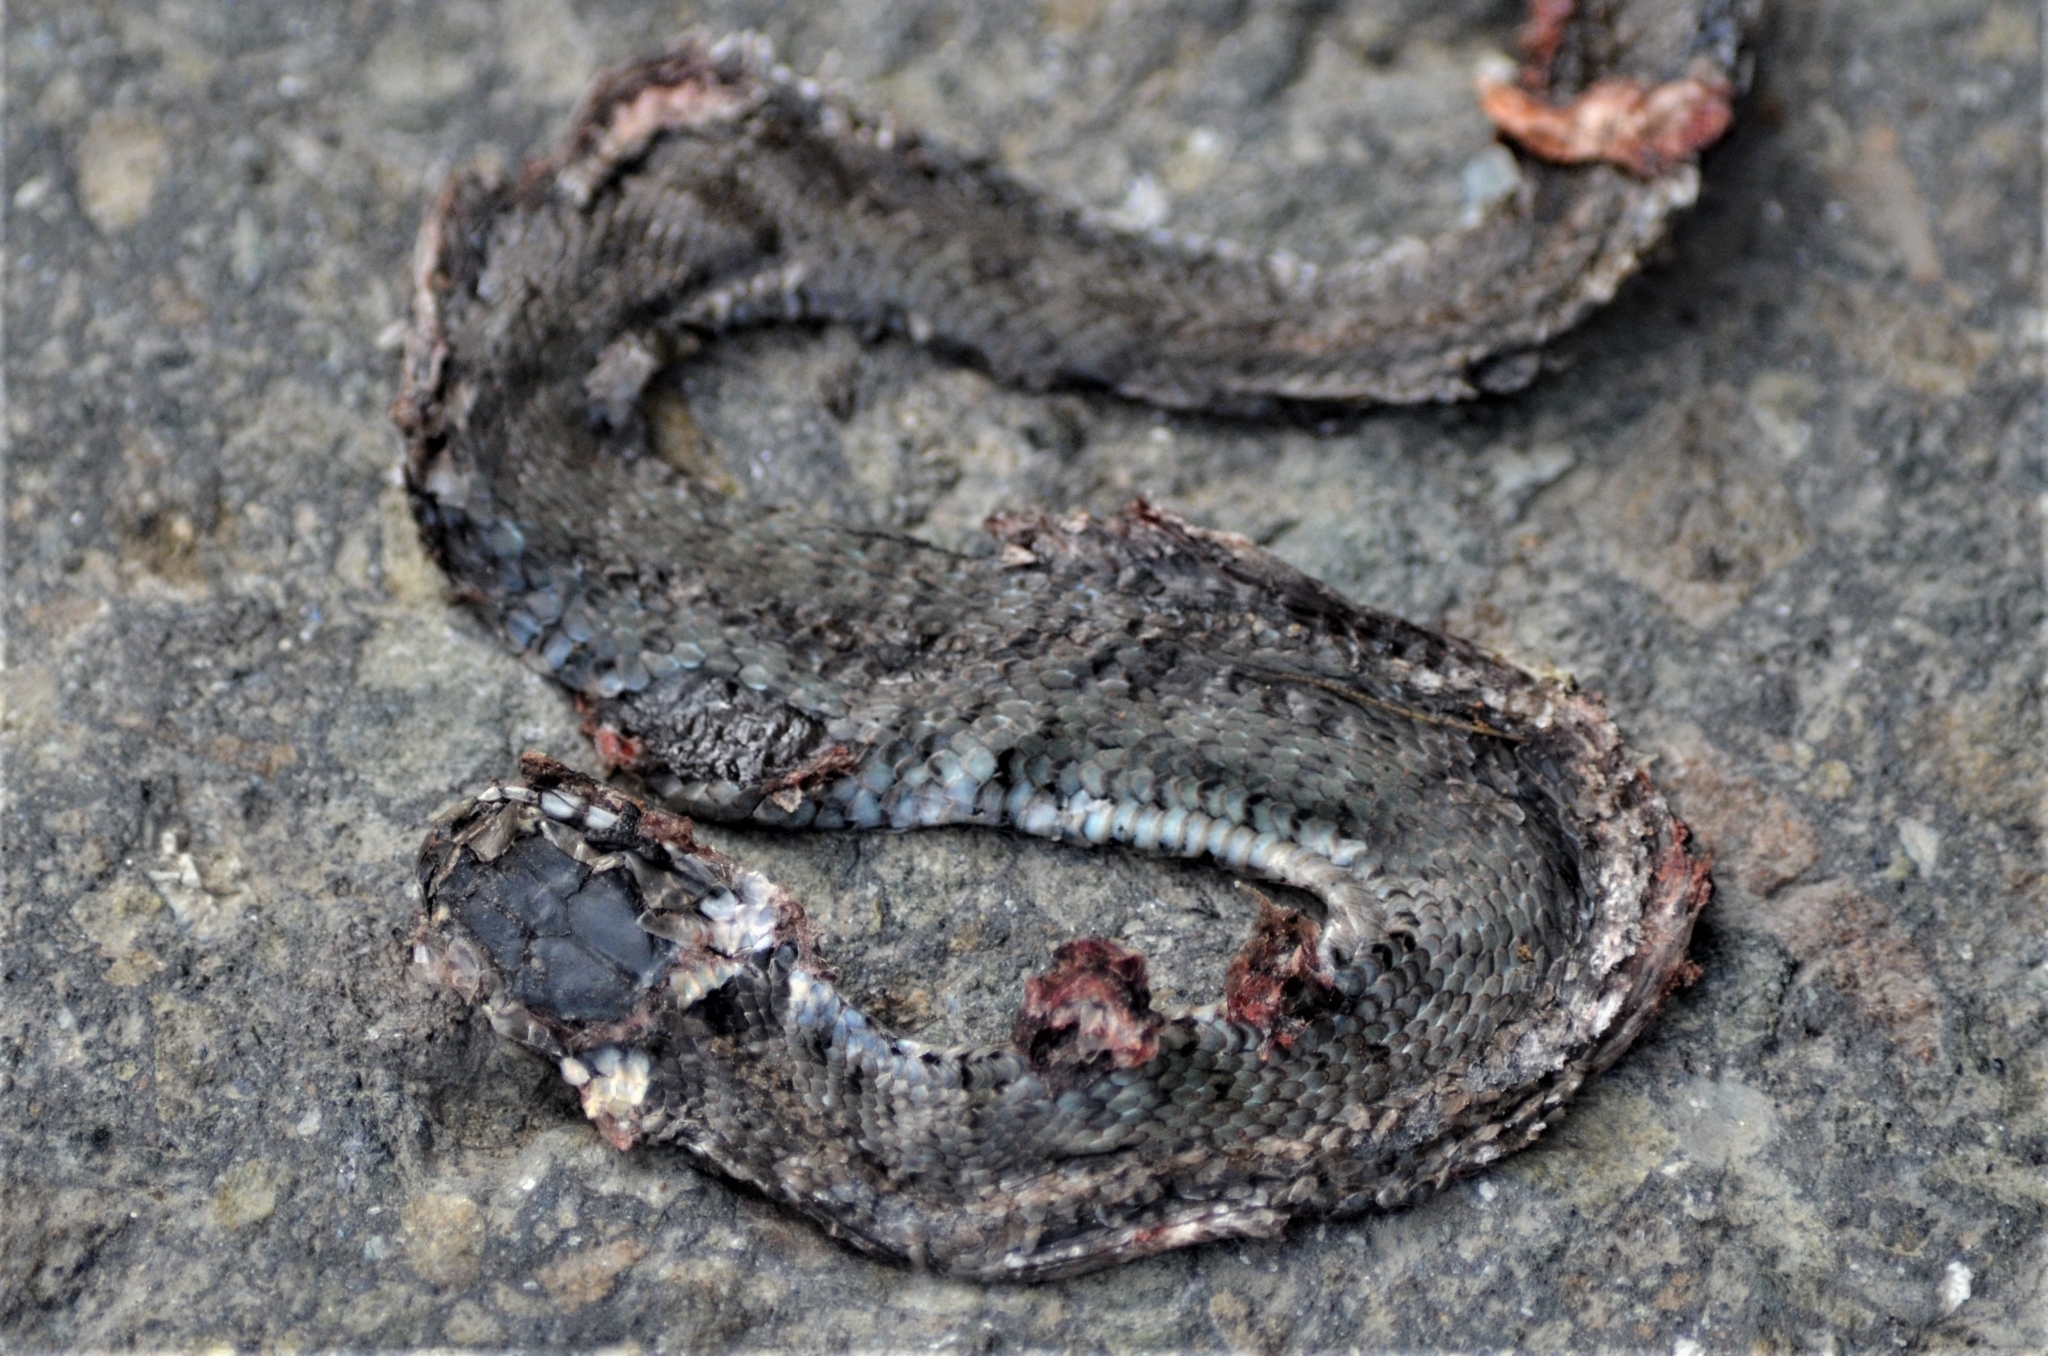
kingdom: Animalia
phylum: Chordata
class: Squamata
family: Colubridae
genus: Natrix
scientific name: Natrix natrix
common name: Grass snake
